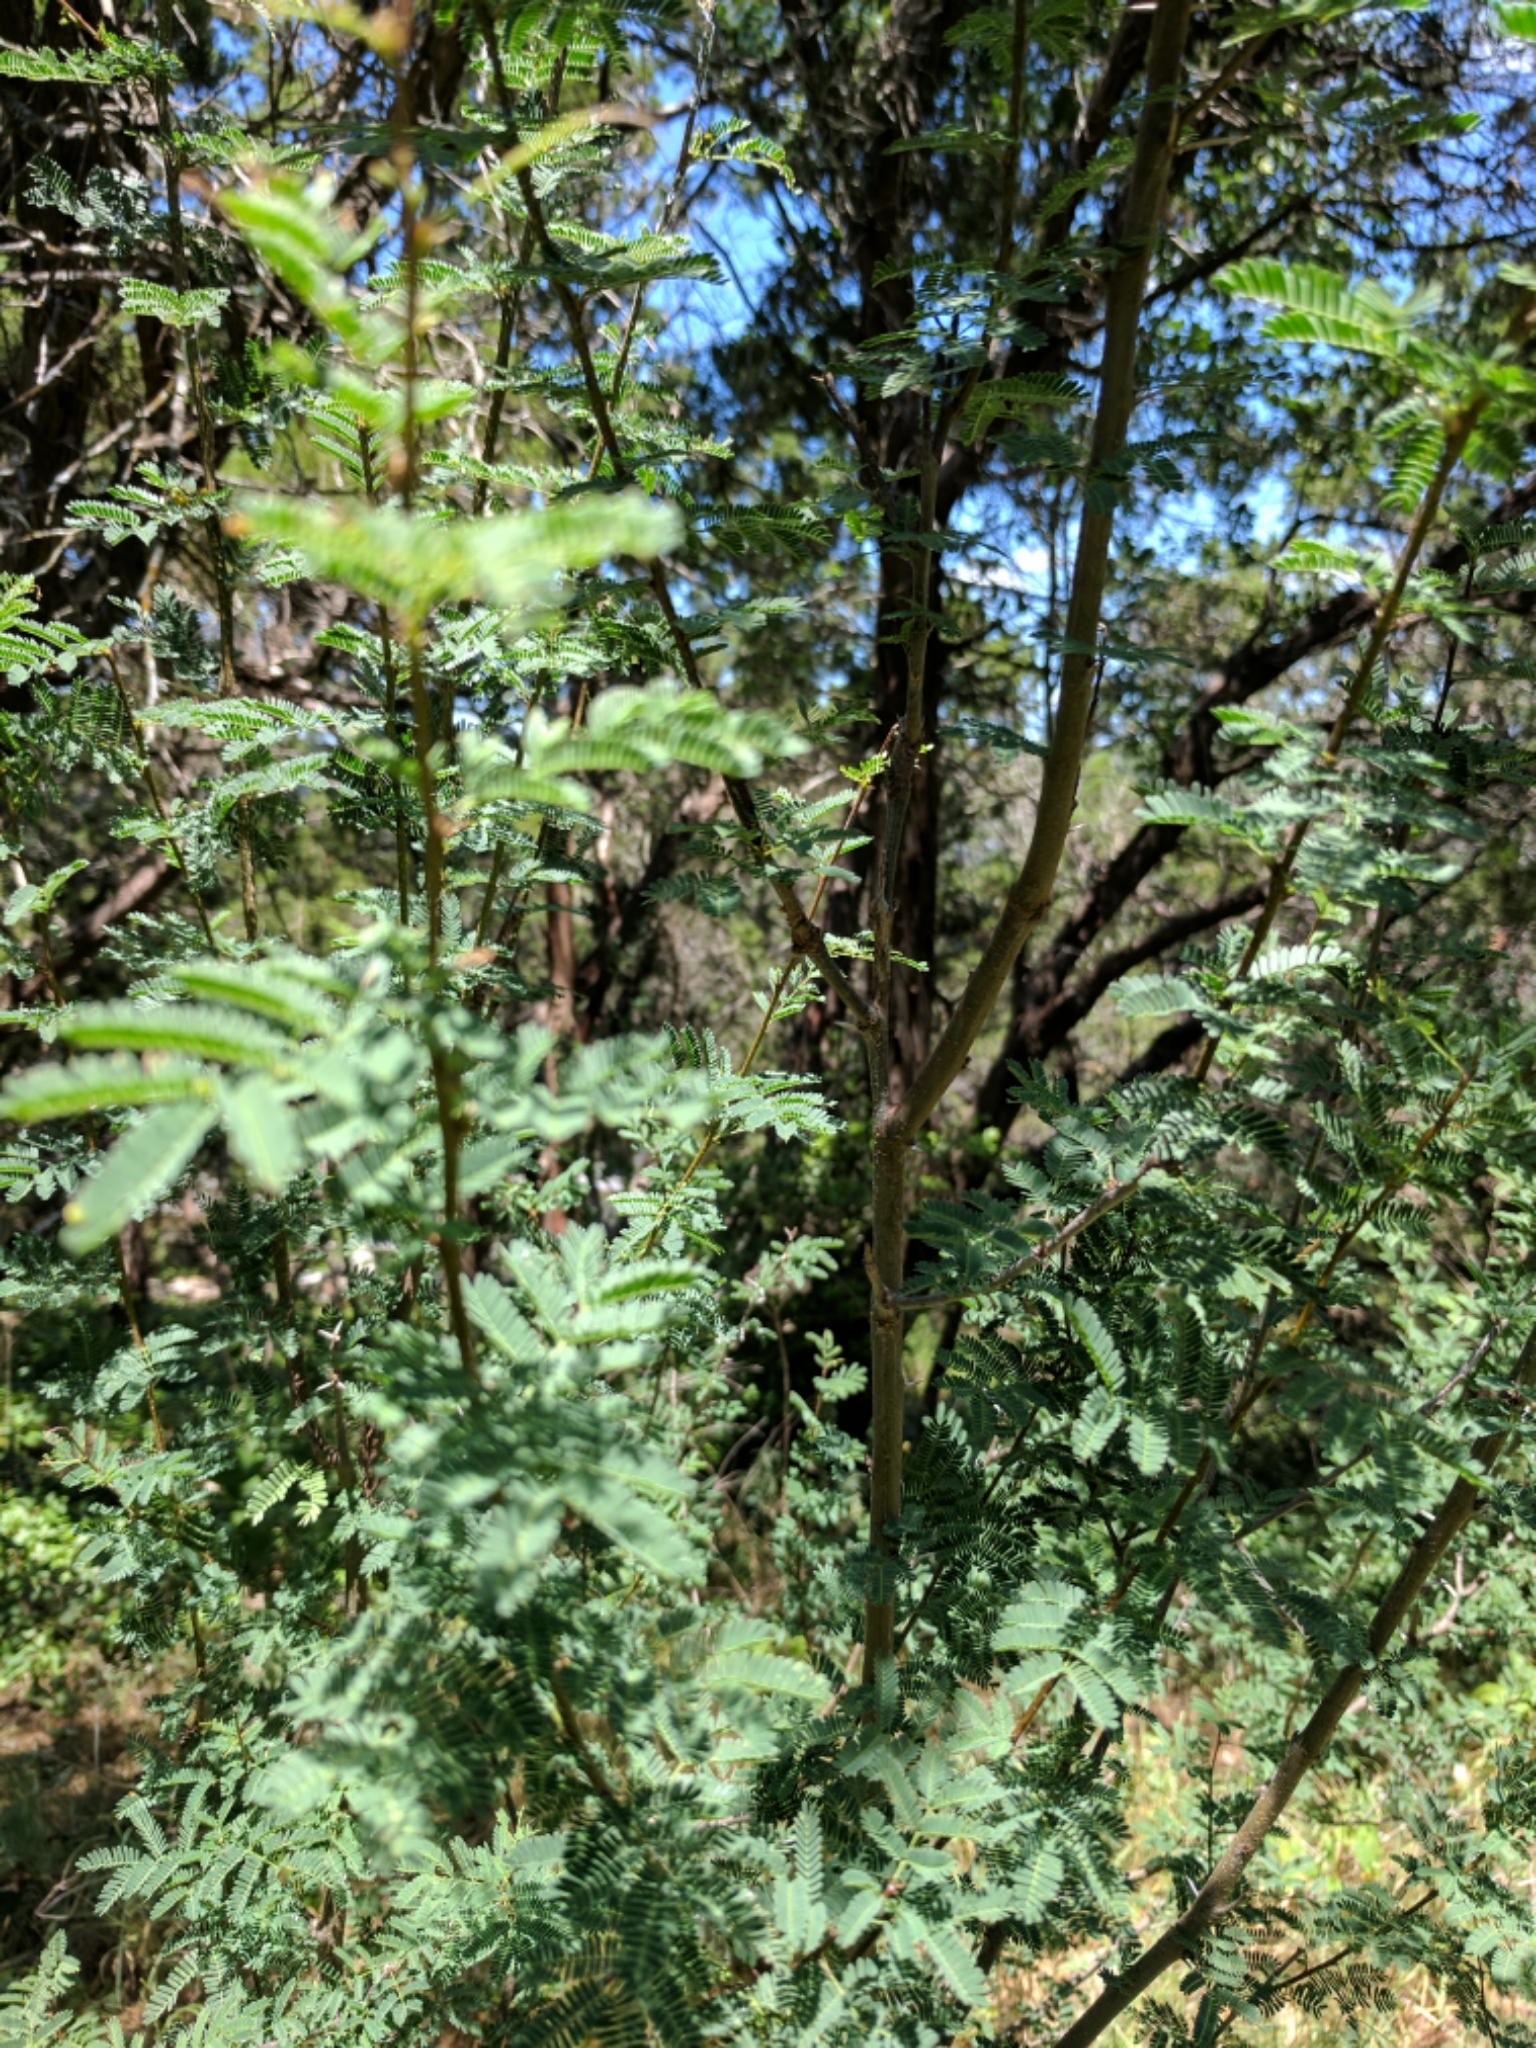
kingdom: Plantae
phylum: Tracheophyta
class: Magnoliopsida
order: Fabales
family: Fabaceae
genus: Vachellia
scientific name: Vachellia farnesiana
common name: Sweet acacia
